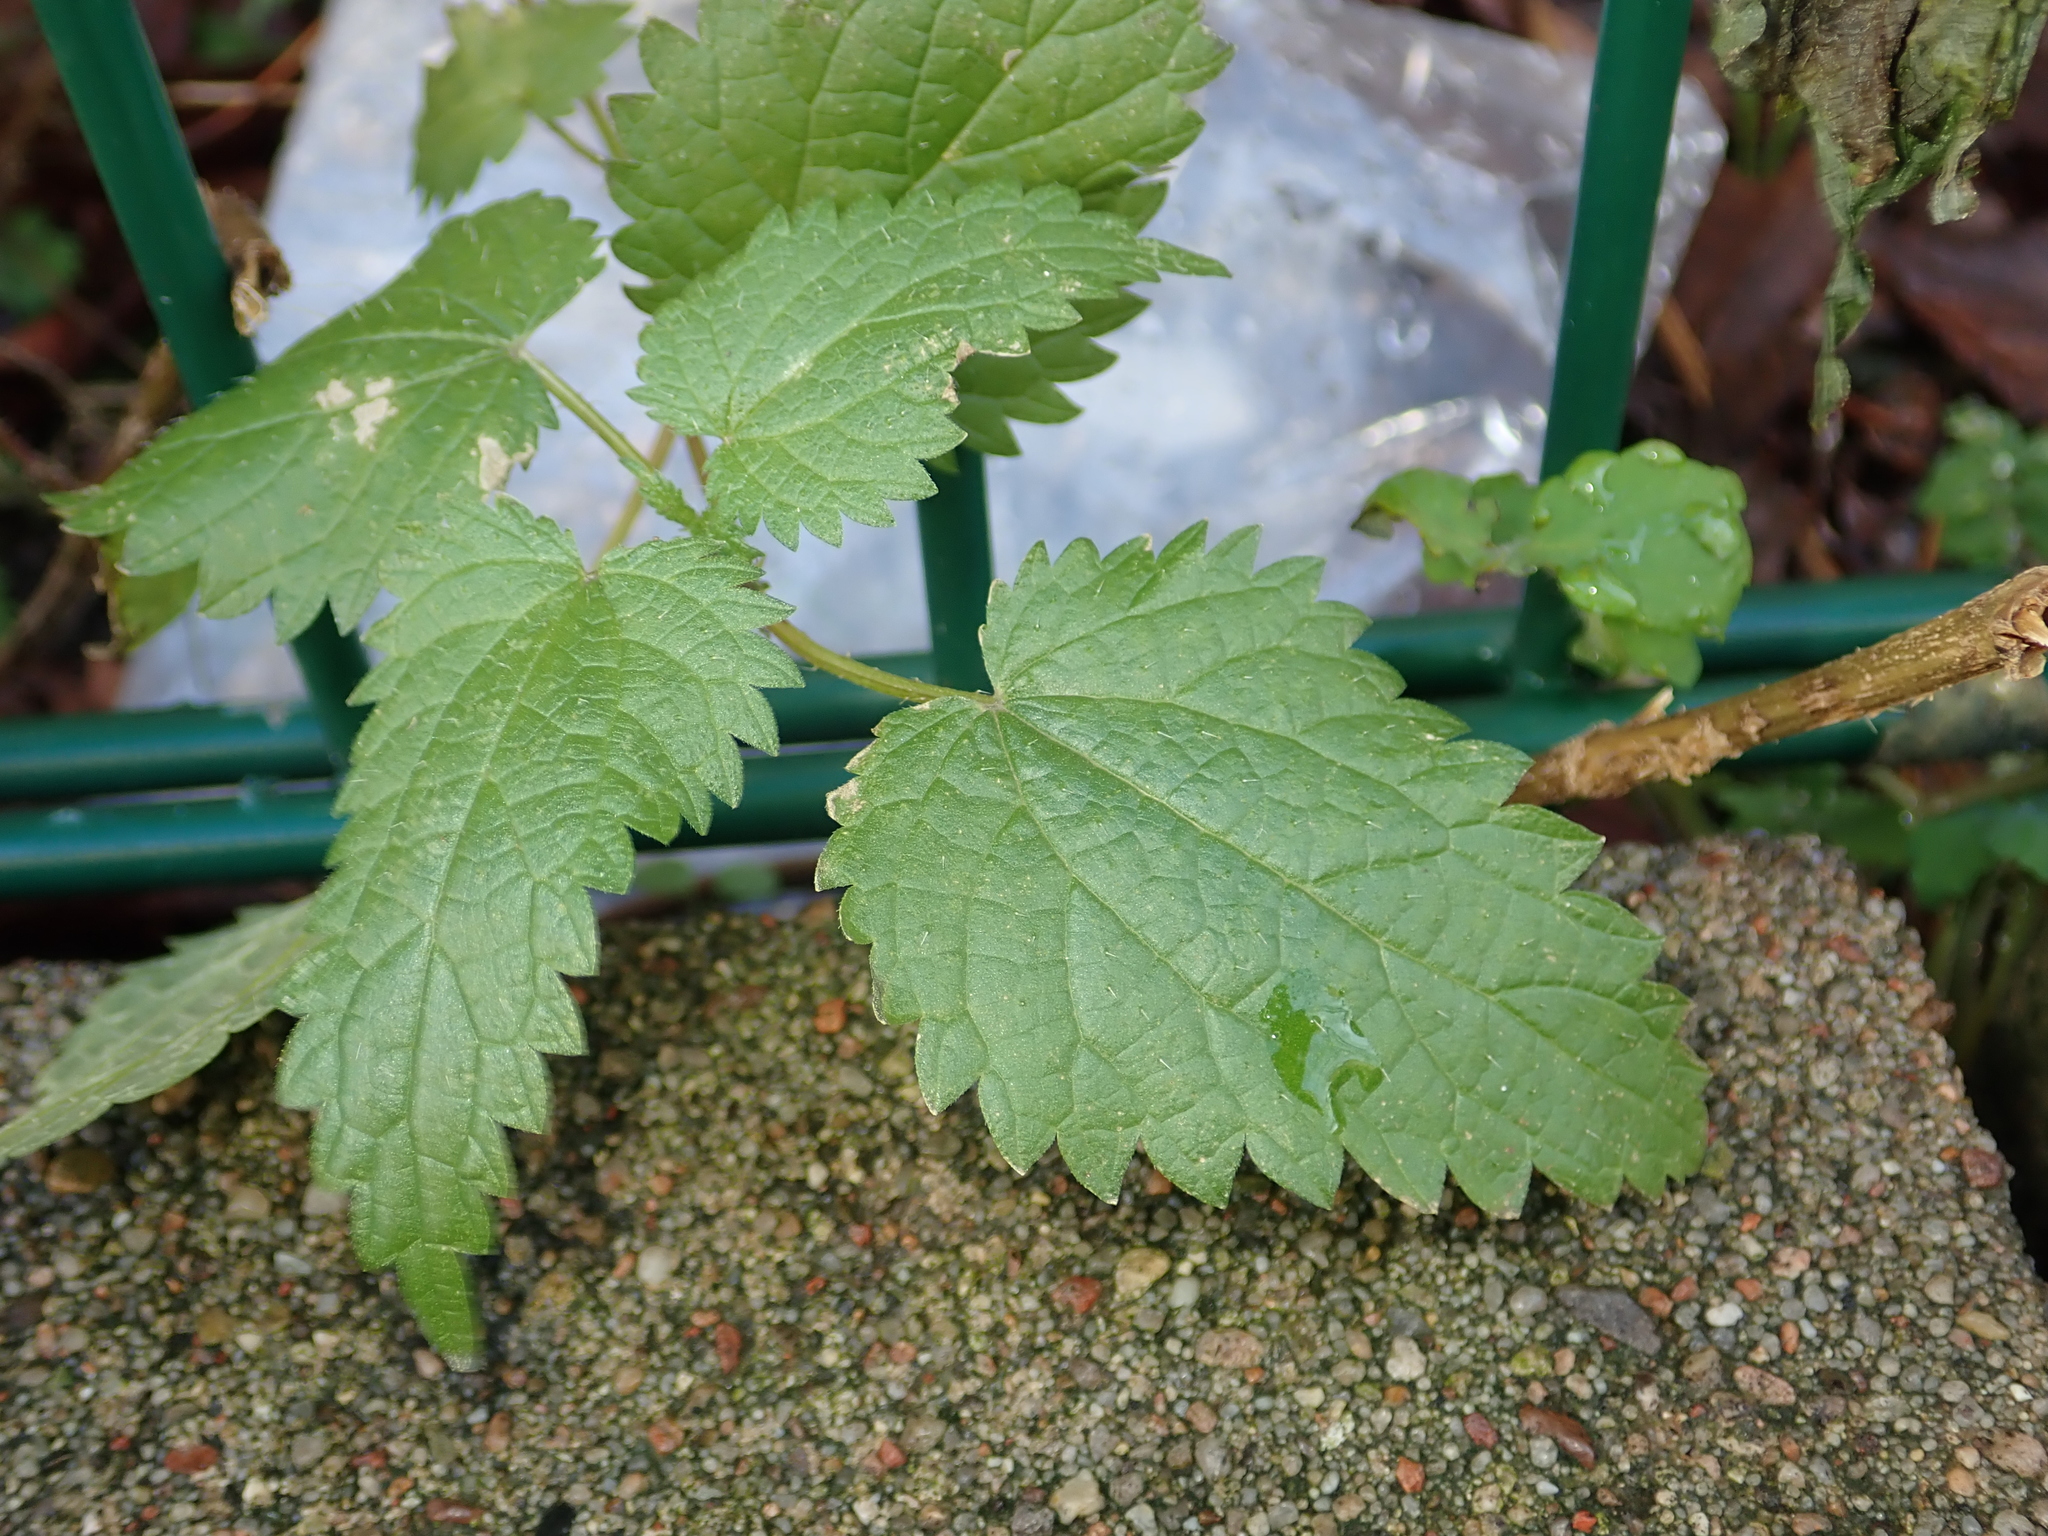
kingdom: Plantae
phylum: Tracheophyta
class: Magnoliopsida
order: Rosales
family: Urticaceae
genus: Urtica
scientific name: Urtica dioica
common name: Common nettle
